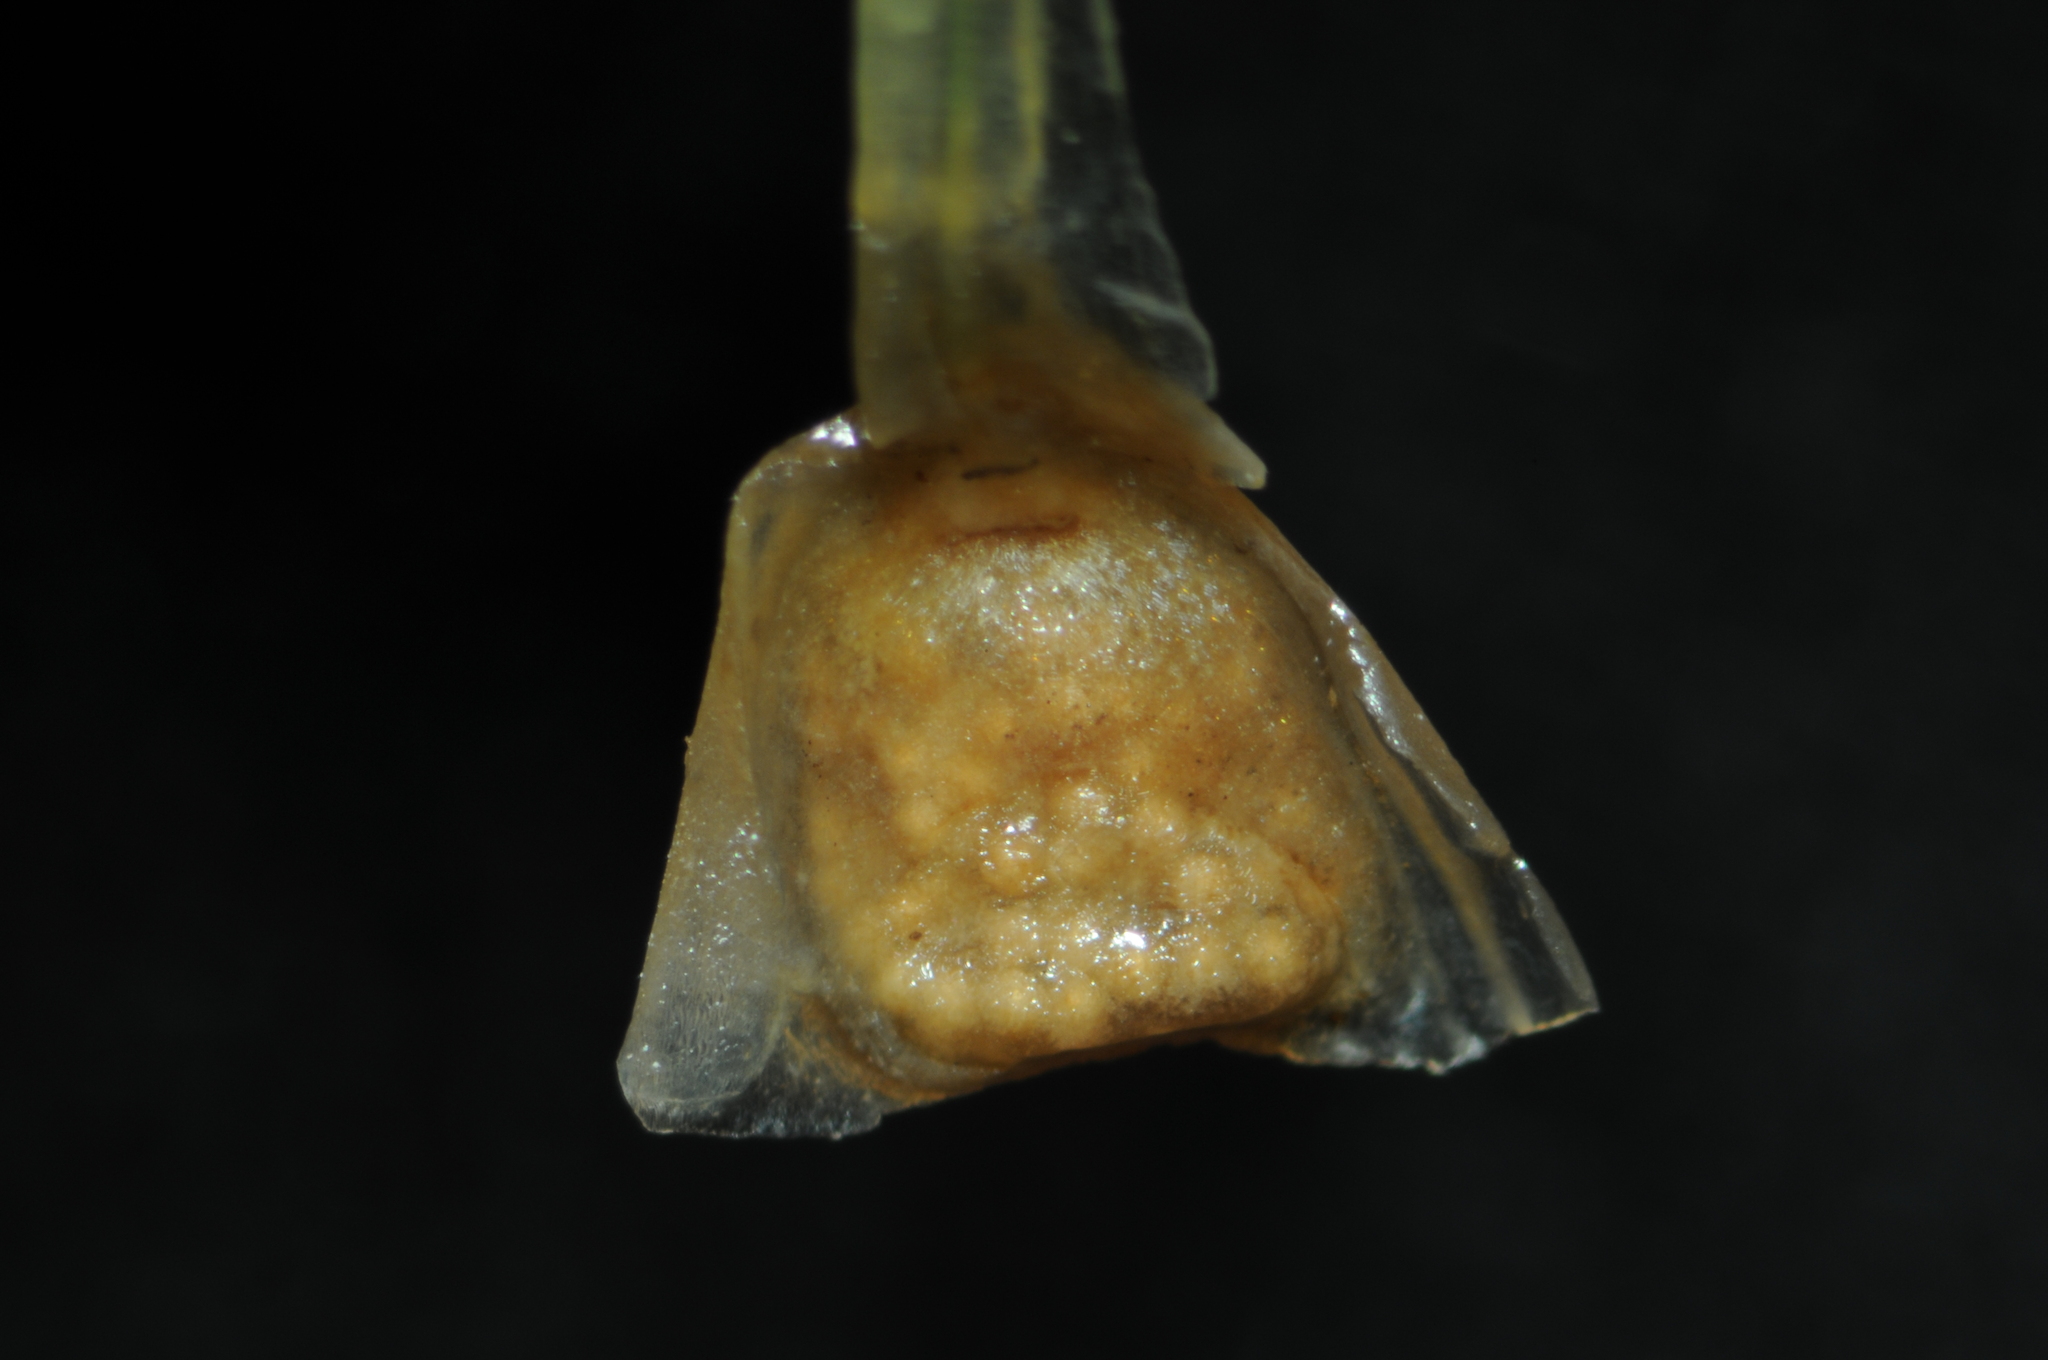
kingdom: Plantae
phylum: Tracheophyta
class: Lycopodiopsida
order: Isoetales
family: Isoetaceae
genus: Isoetes
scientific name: Isoetes minima
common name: Midget quillwort
